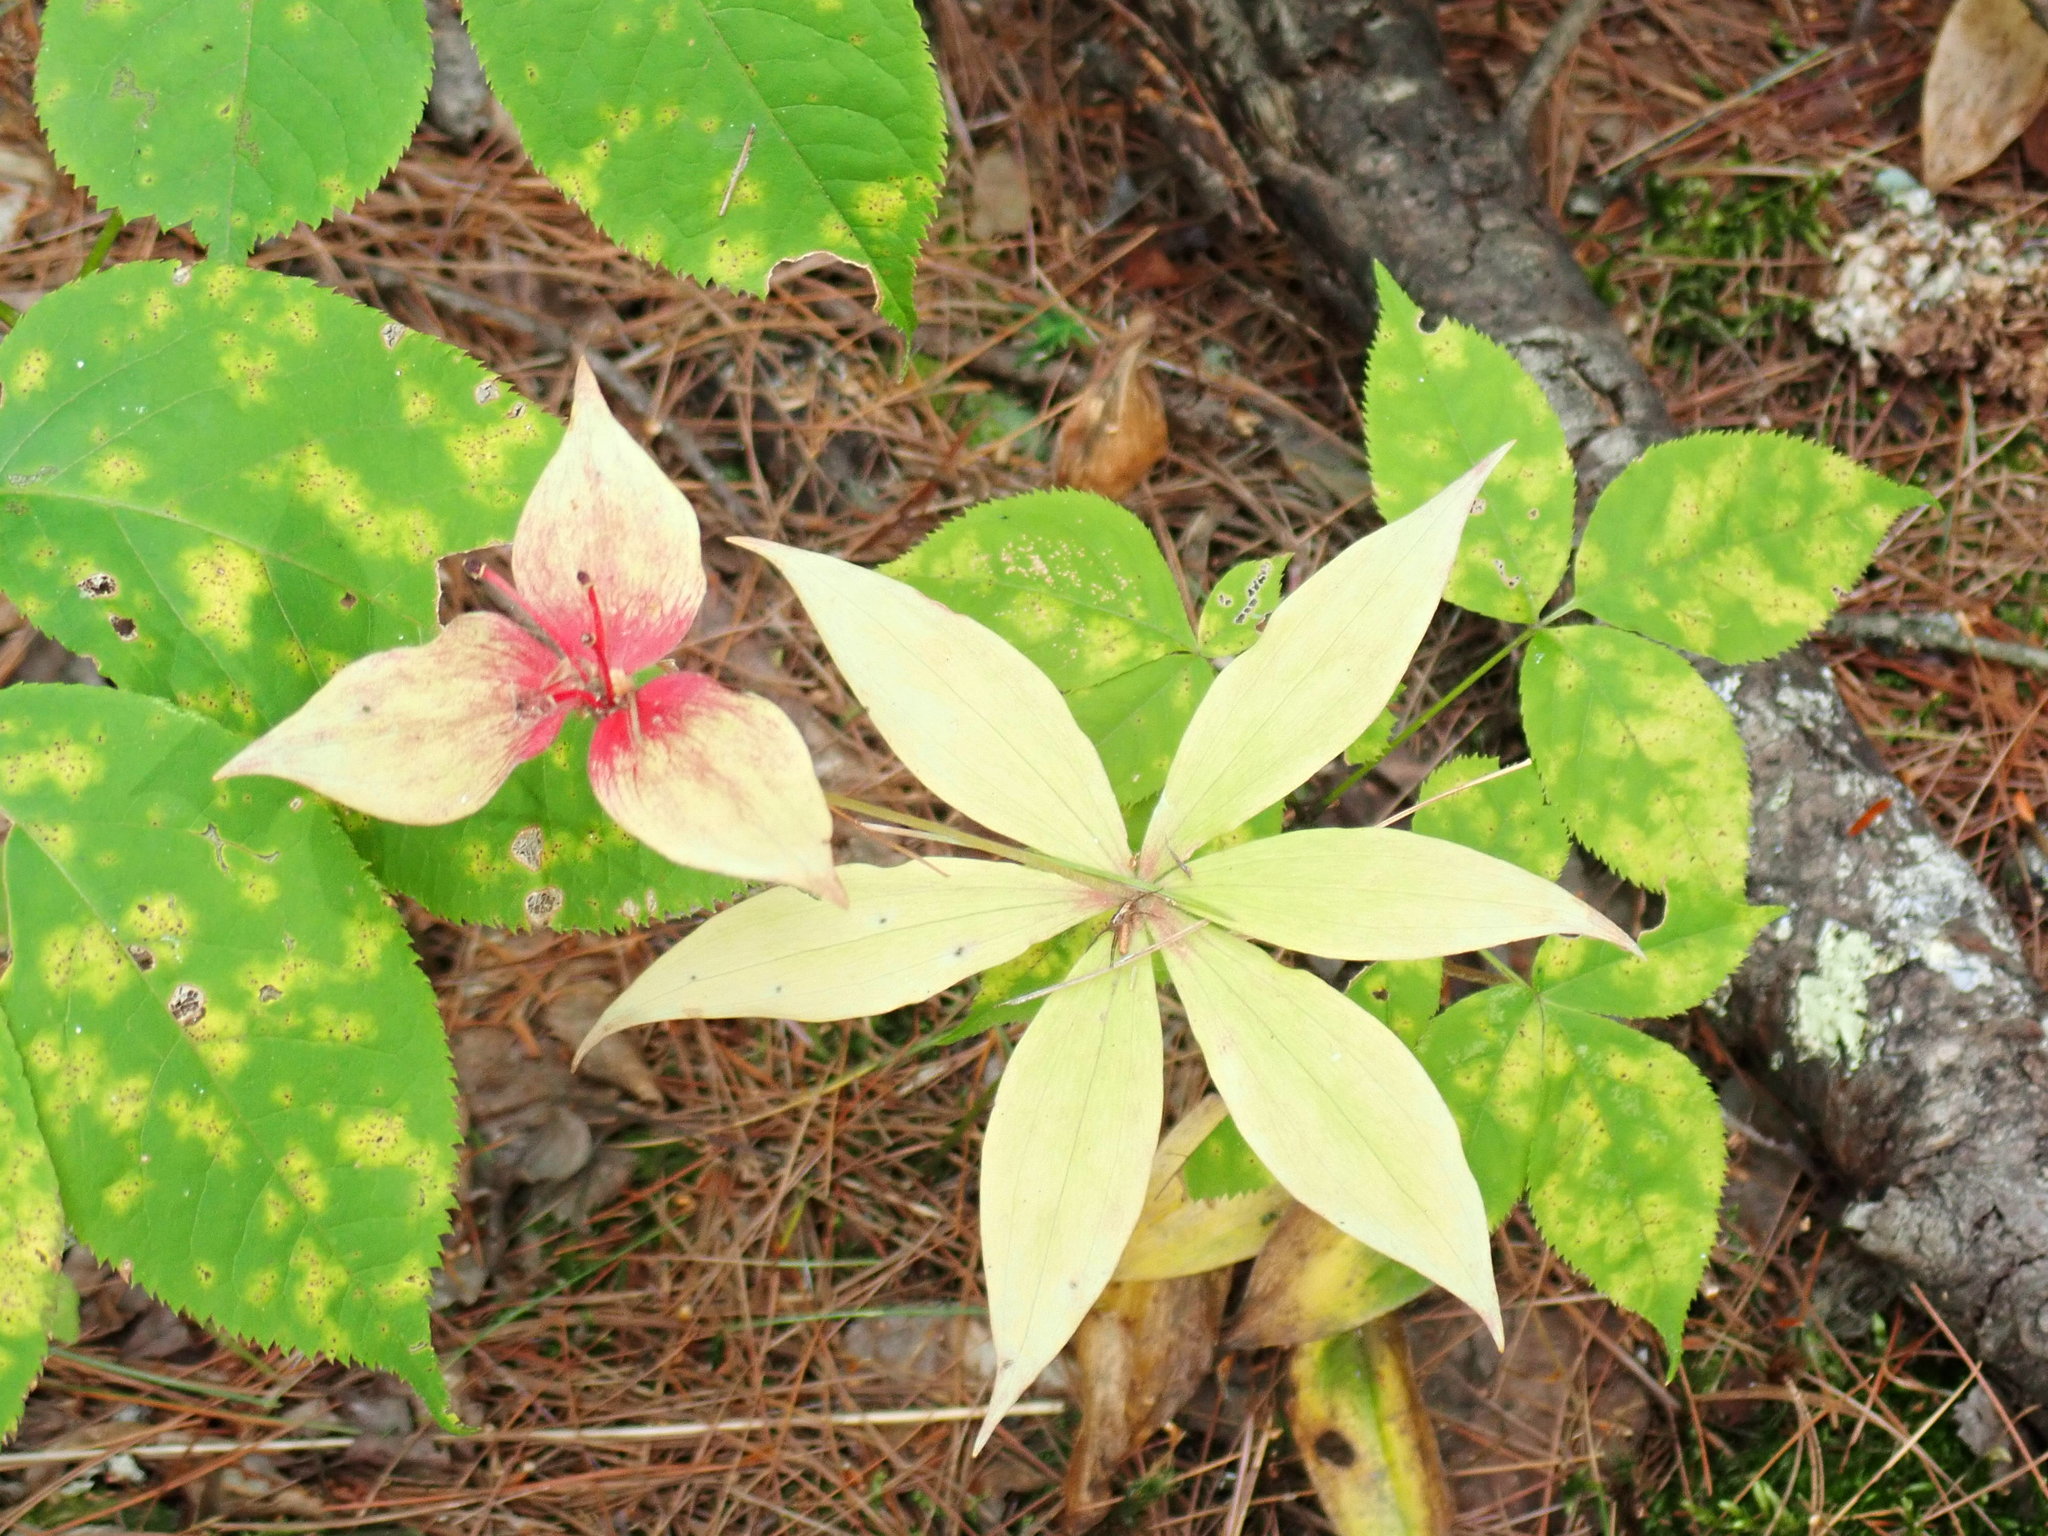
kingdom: Plantae
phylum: Tracheophyta
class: Liliopsida
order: Liliales
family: Liliaceae
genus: Medeola
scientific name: Medeola virginiana
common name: Indian cucumber-root
